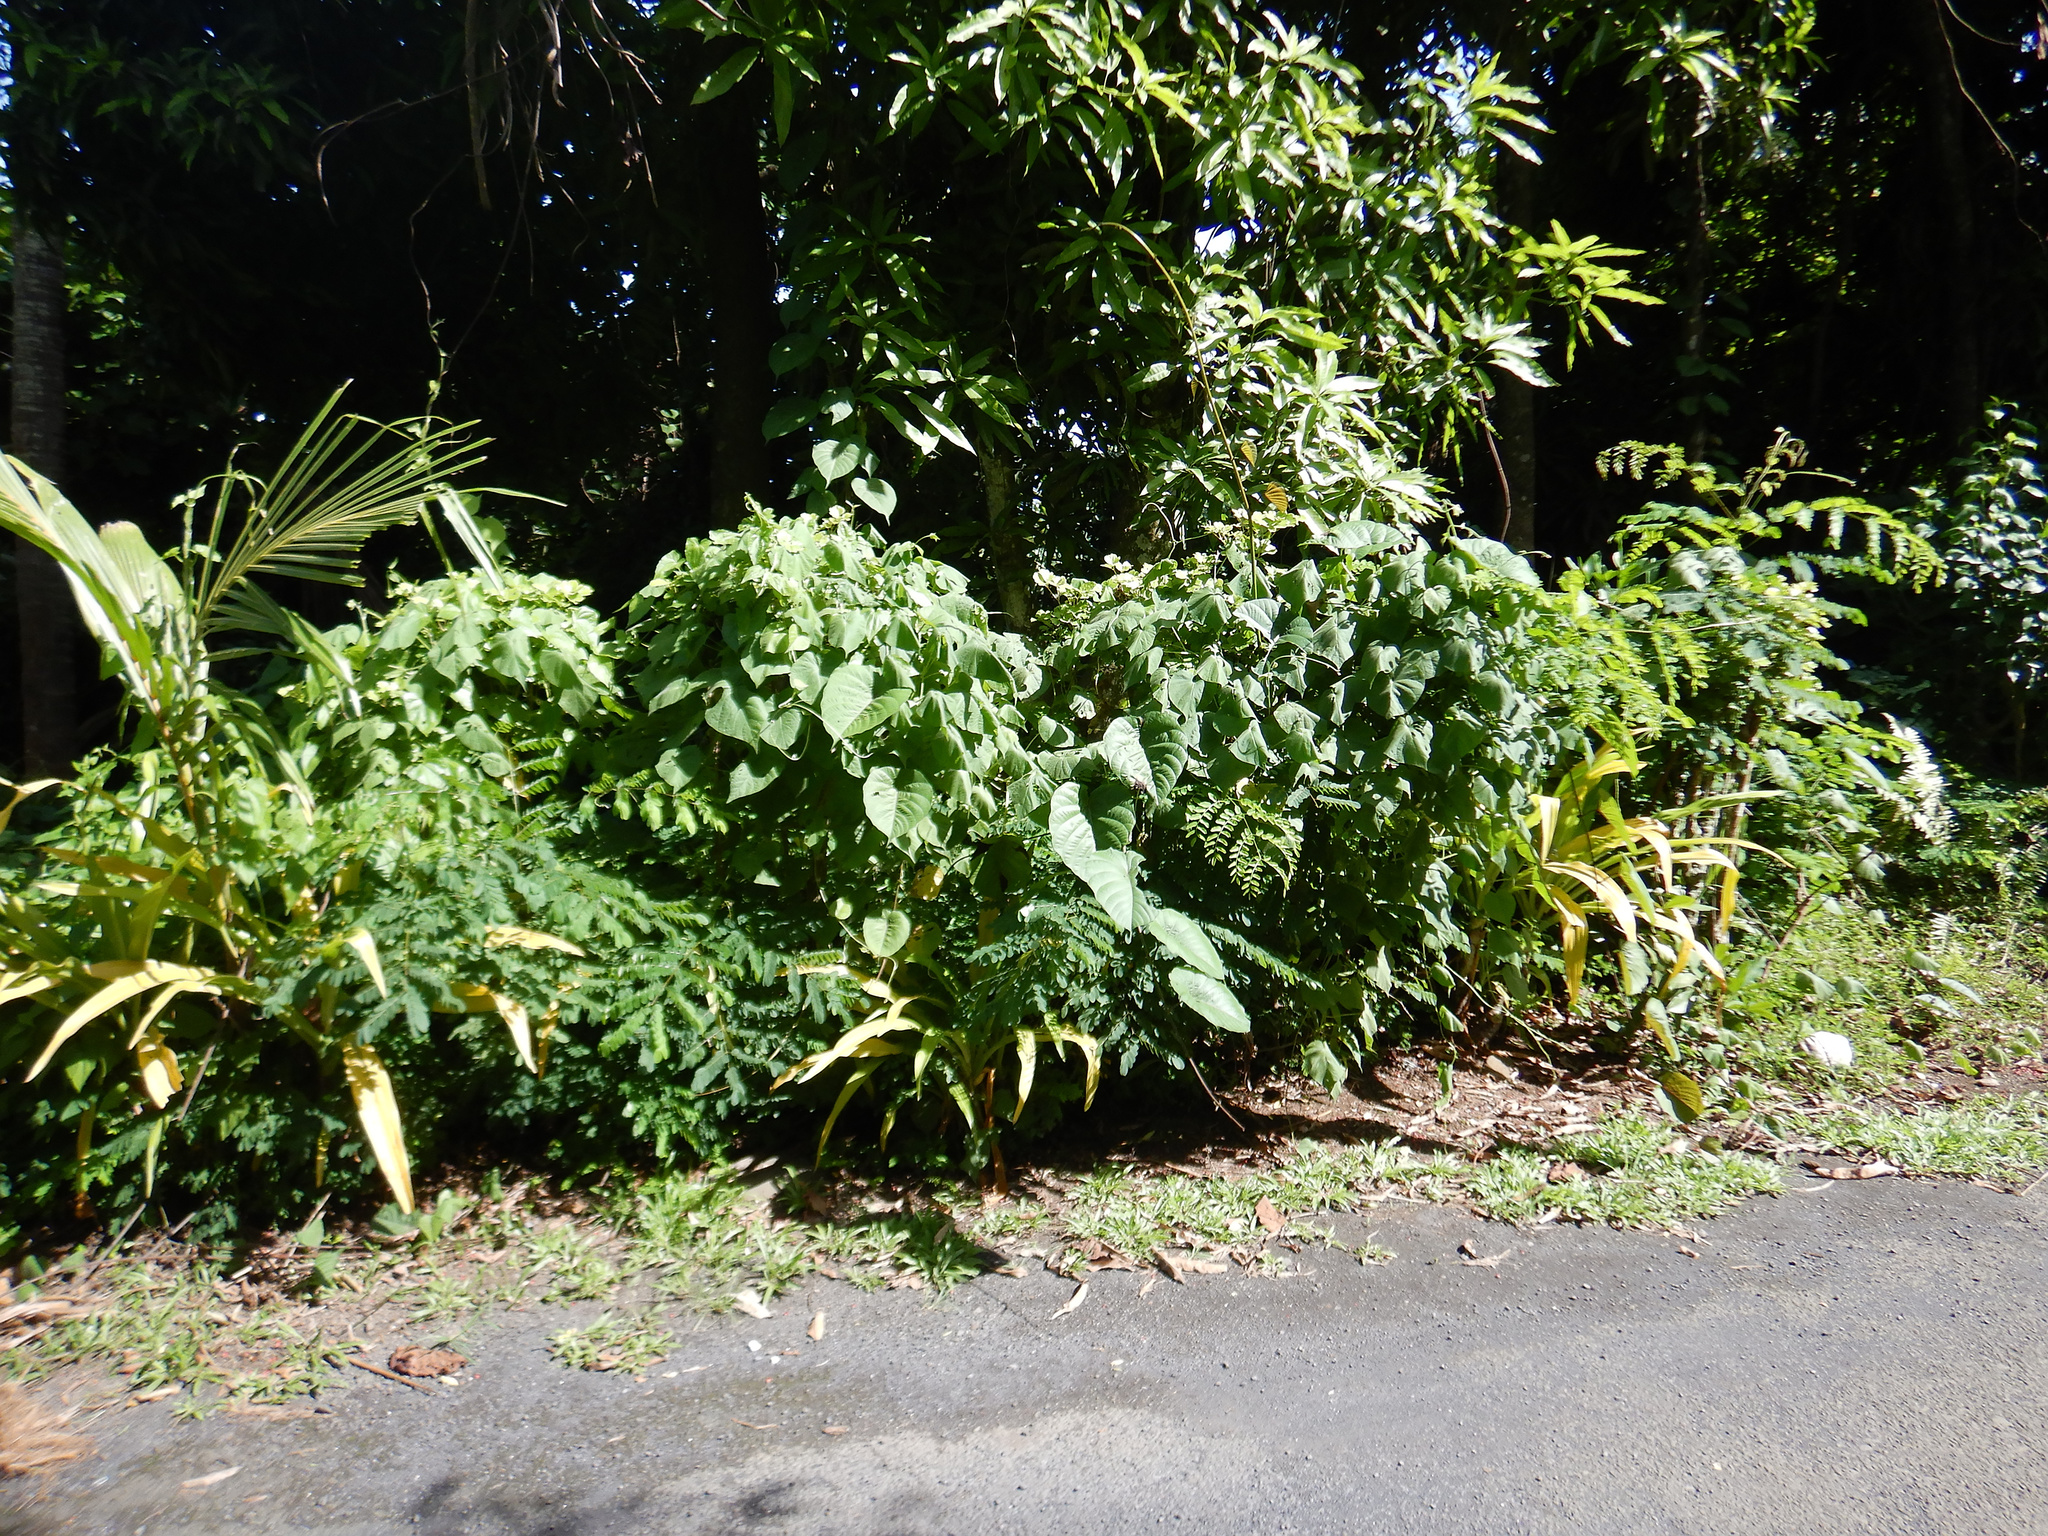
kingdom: Plantae
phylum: Tracheophyta
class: Magnoliopsida
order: Malvales
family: Malvaceae
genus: Talipariti
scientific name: Talipariti tiliaceum
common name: Sea hibiscus
